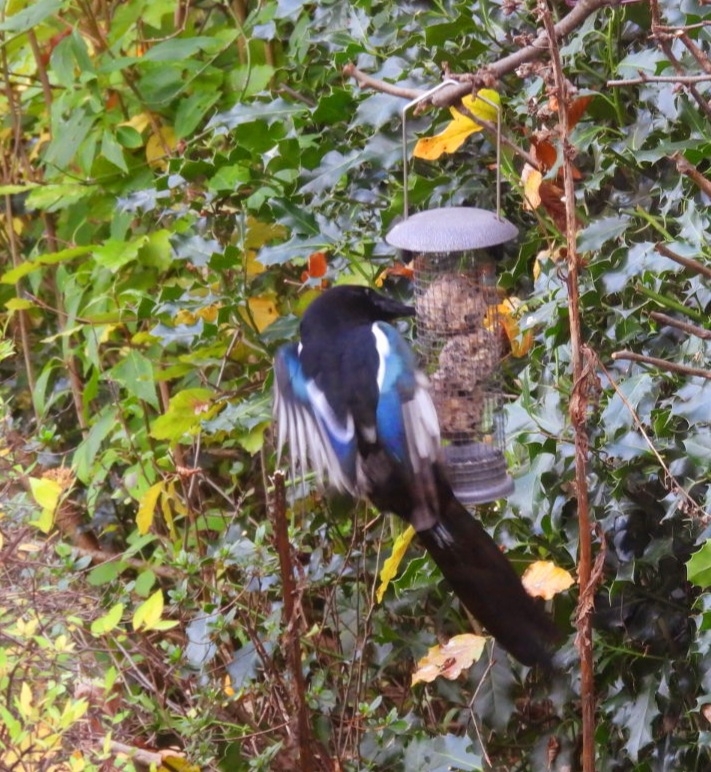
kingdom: Animalia
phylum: Chordata
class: Aves
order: Passeriformes
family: Corvidae
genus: Pica
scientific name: Pica pica
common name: Eurasian magpie
